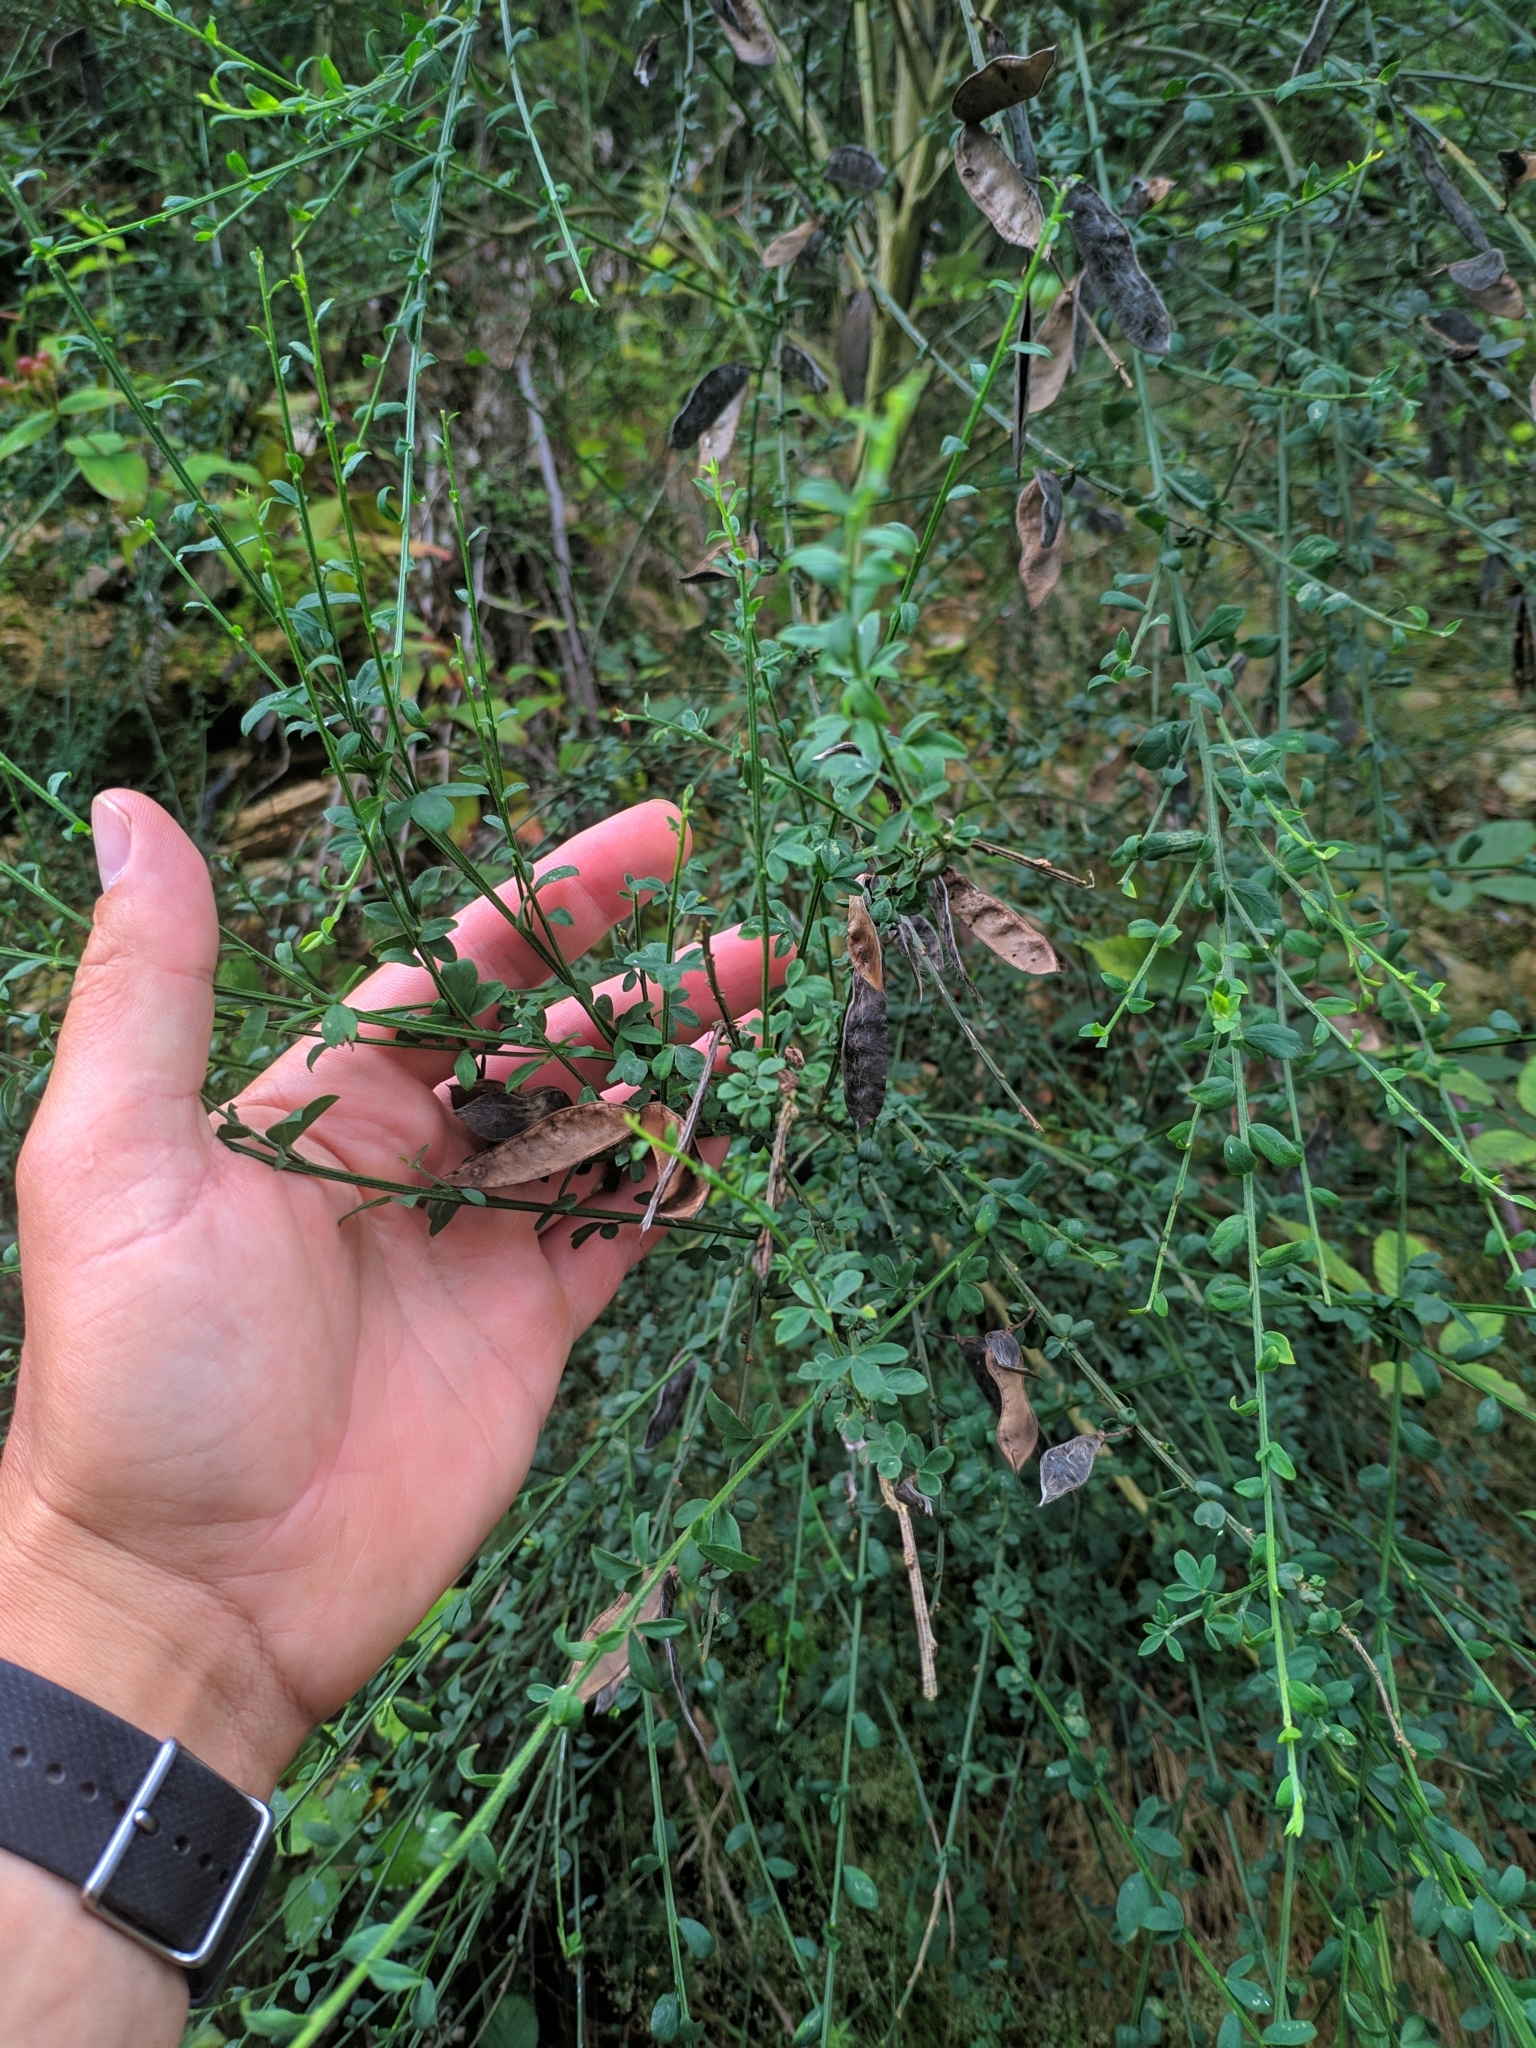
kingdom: Plantae
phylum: Tracheophyta
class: Magnoliopsida
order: Fabales
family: Fabaceae
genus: Cytisus
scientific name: Cytisus cantabricus
